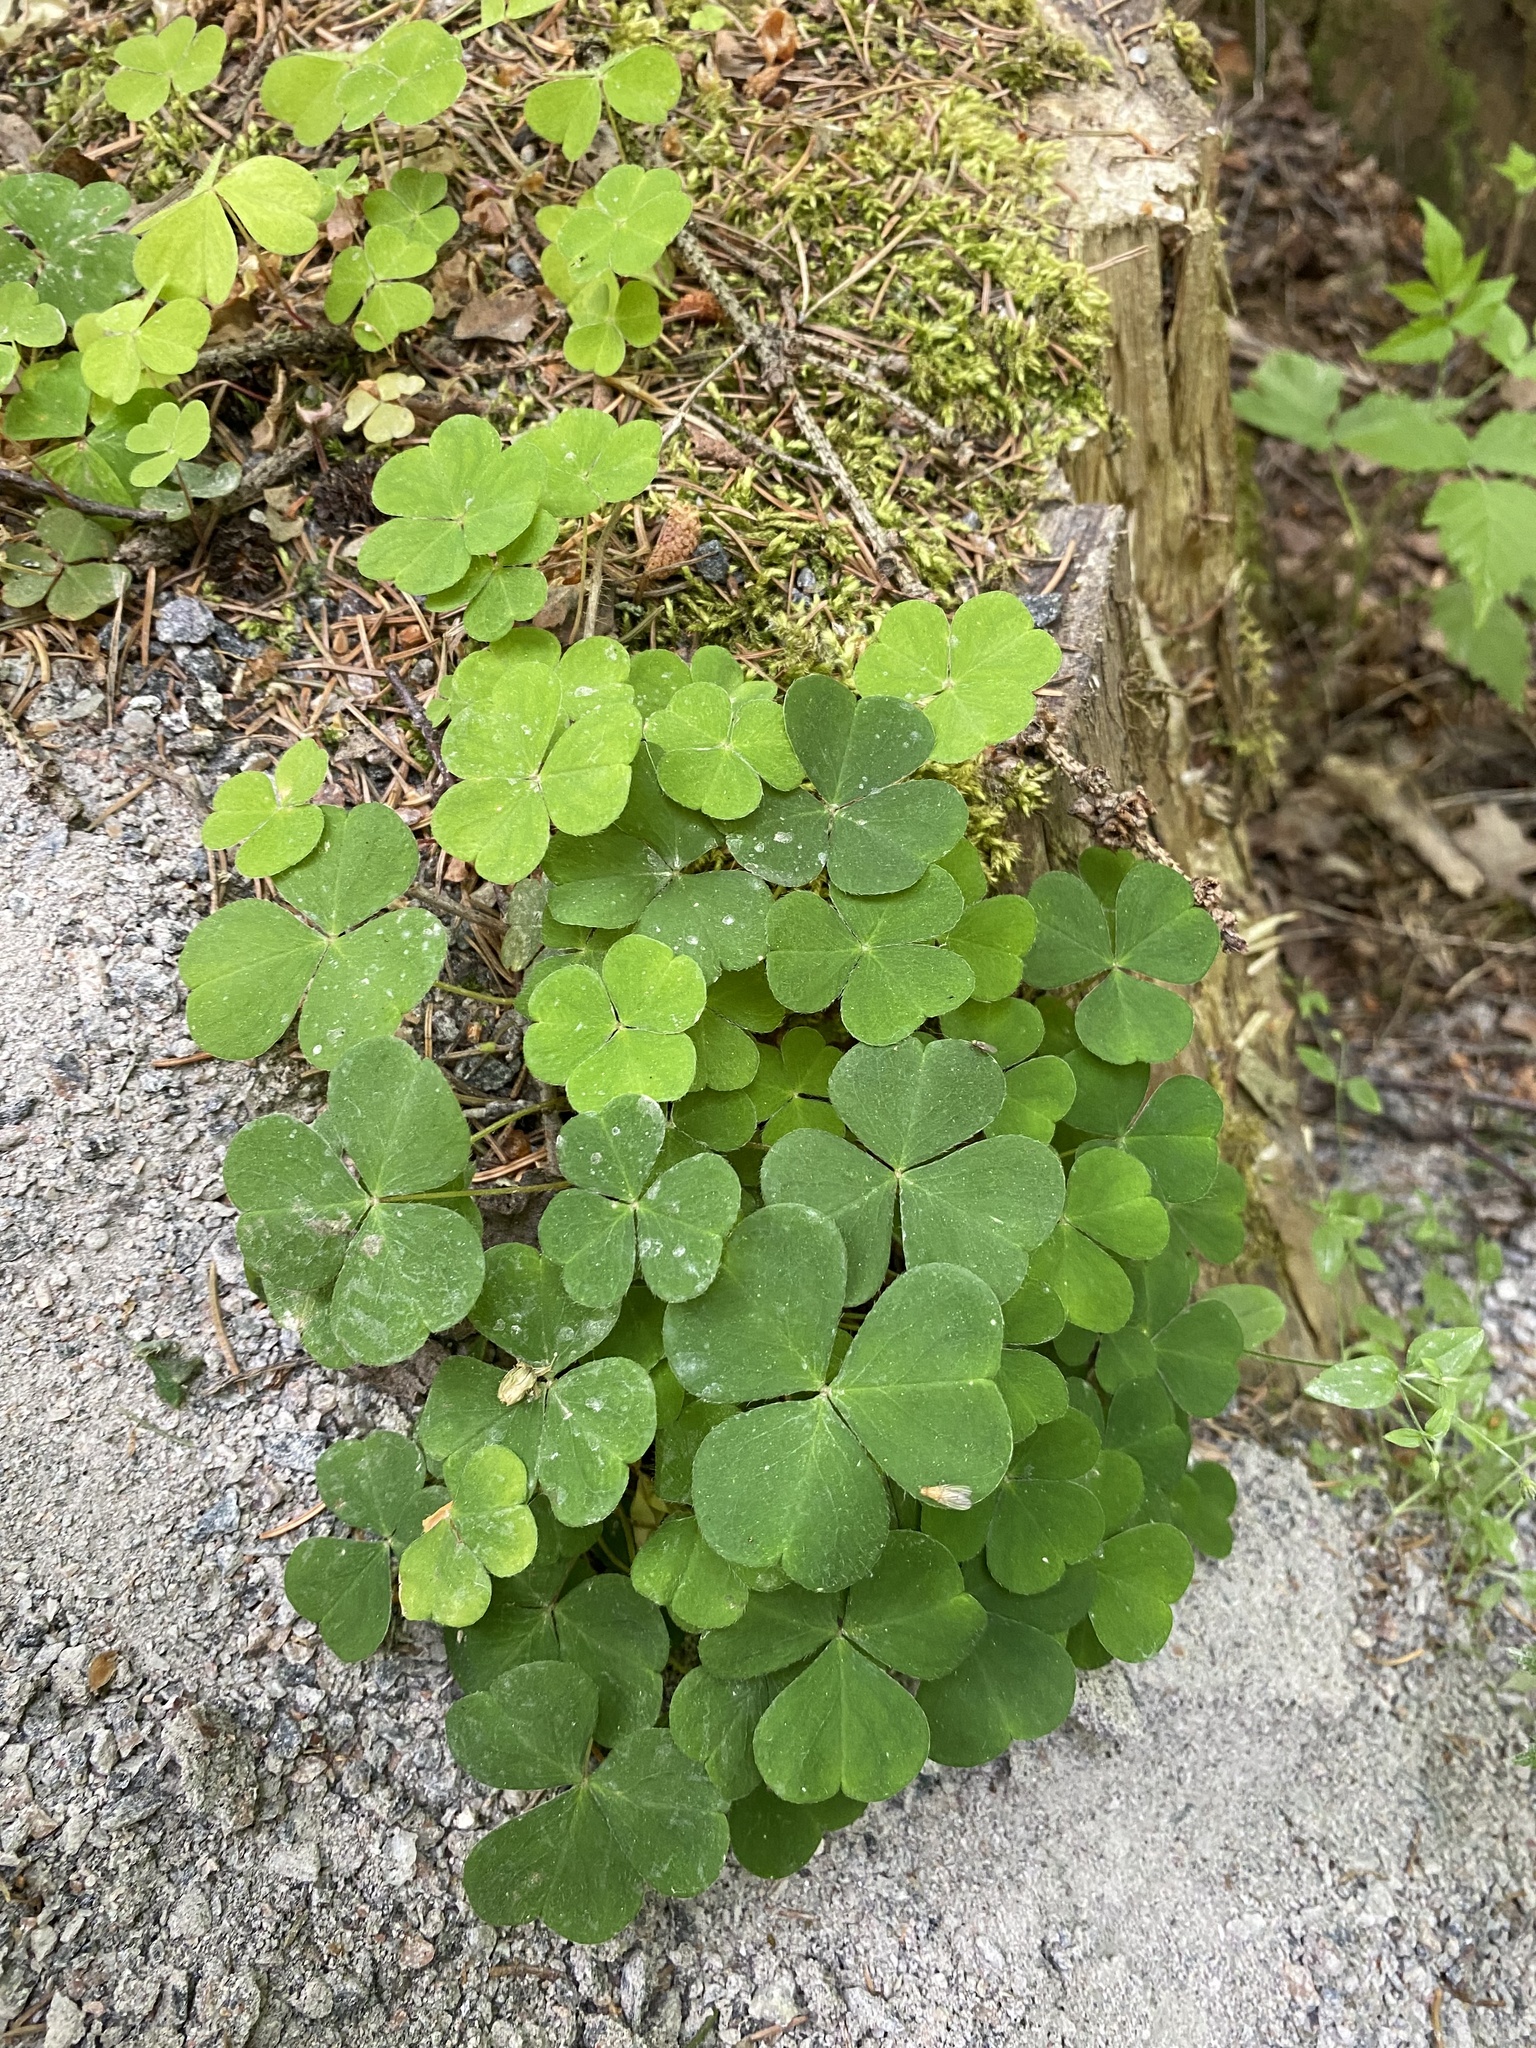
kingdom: Plantae
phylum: Tracheophyta
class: Magnoliopsida
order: Oxalidales
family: Oxalidaceae
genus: Oxalis
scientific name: Oxalis acetosella
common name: Wood-sorrel
